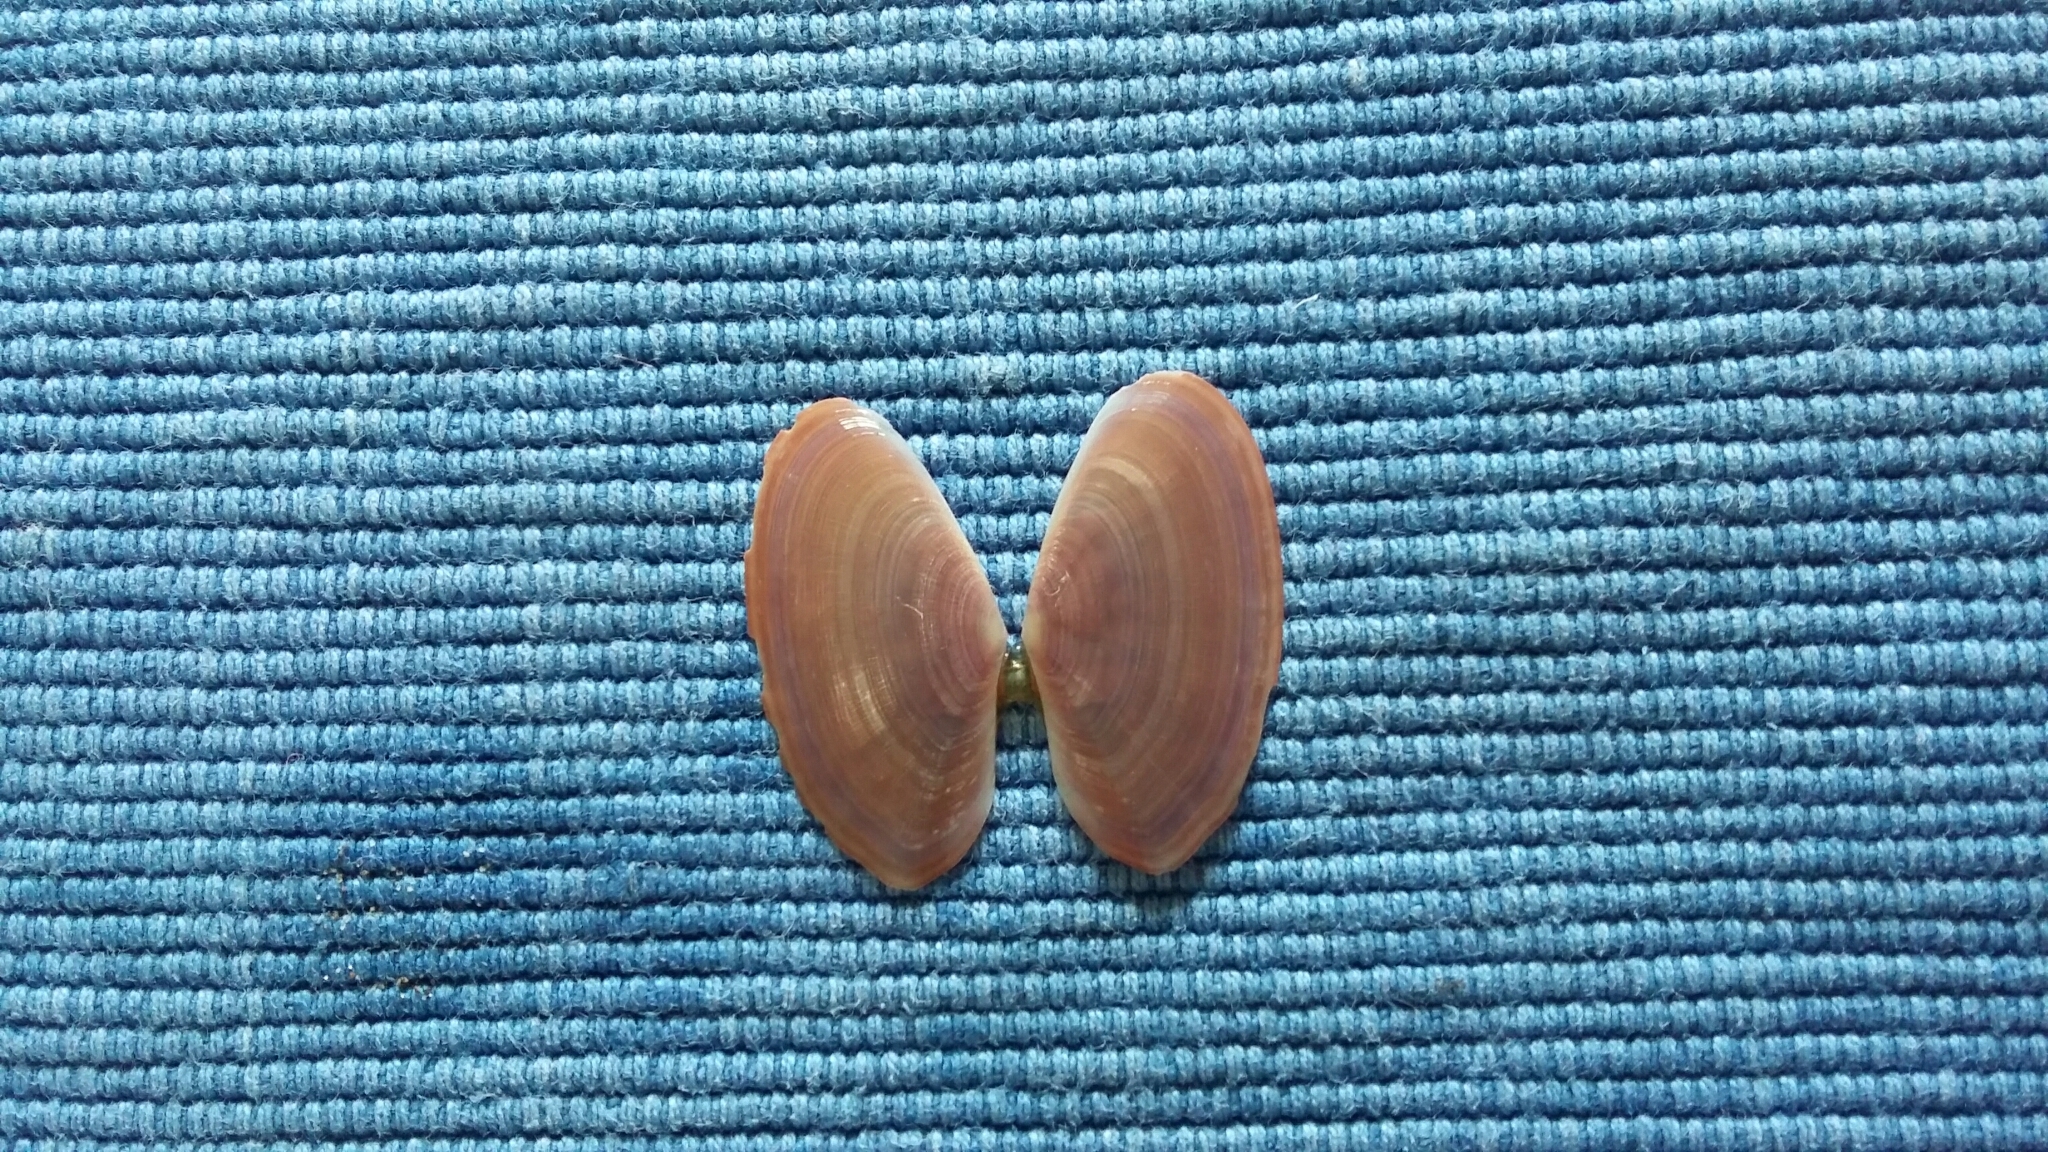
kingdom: Animalia
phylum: Mollusca
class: Bivalvia
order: Cardiida
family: Psammobiidae
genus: Gari
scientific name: Gari lineolata
